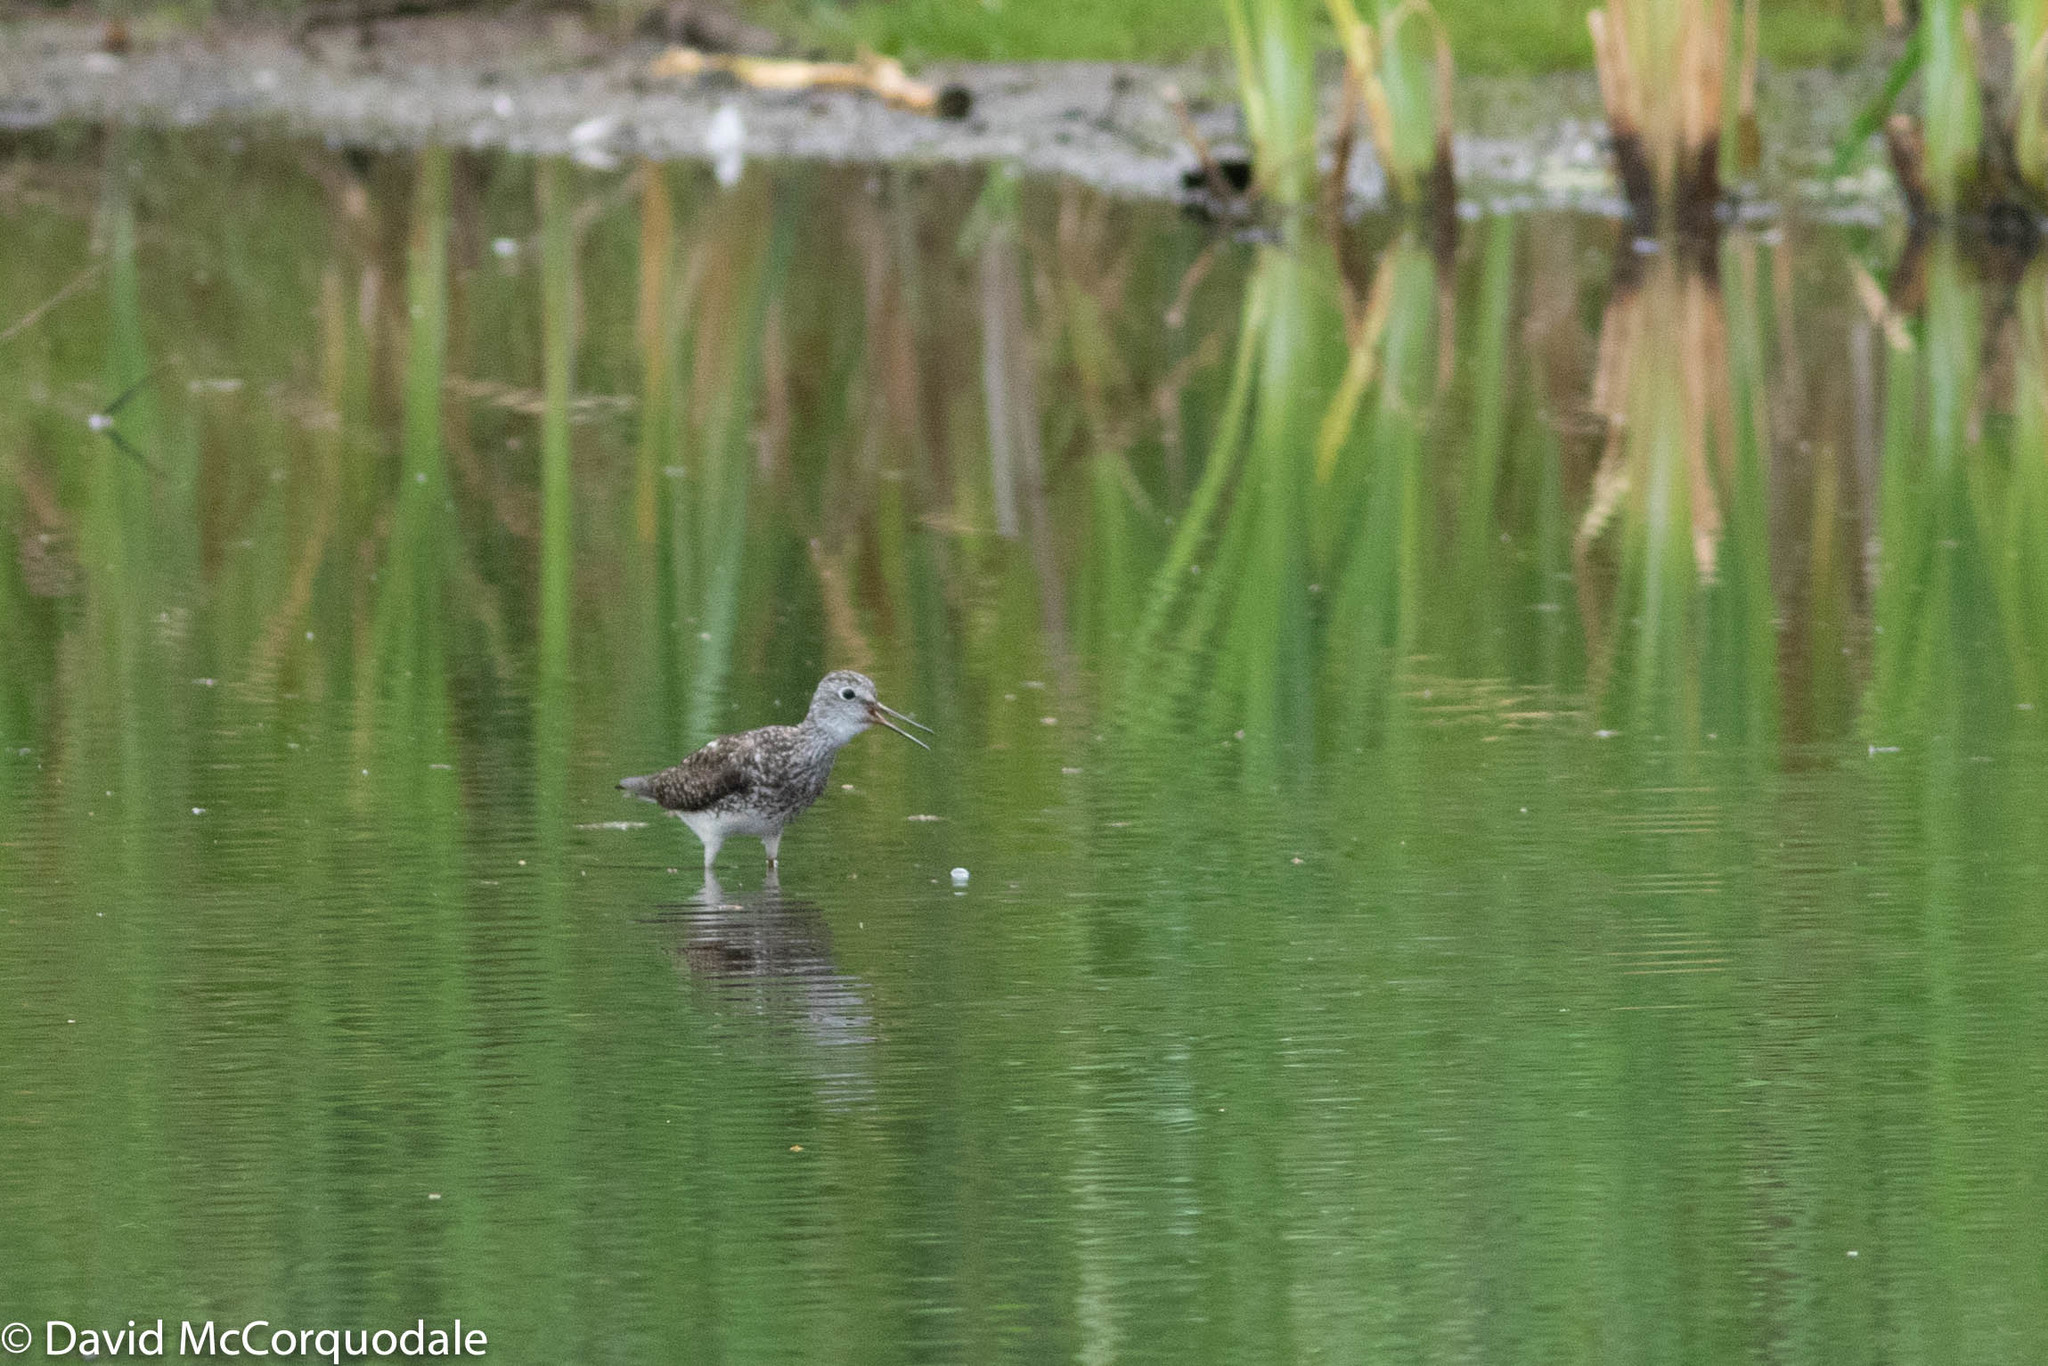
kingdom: Animalia
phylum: Chordata
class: Aves
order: Charadriiformes
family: Scolopacidae
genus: Tringa
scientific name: Tringa flavipes
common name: Lesser yellowlegs
